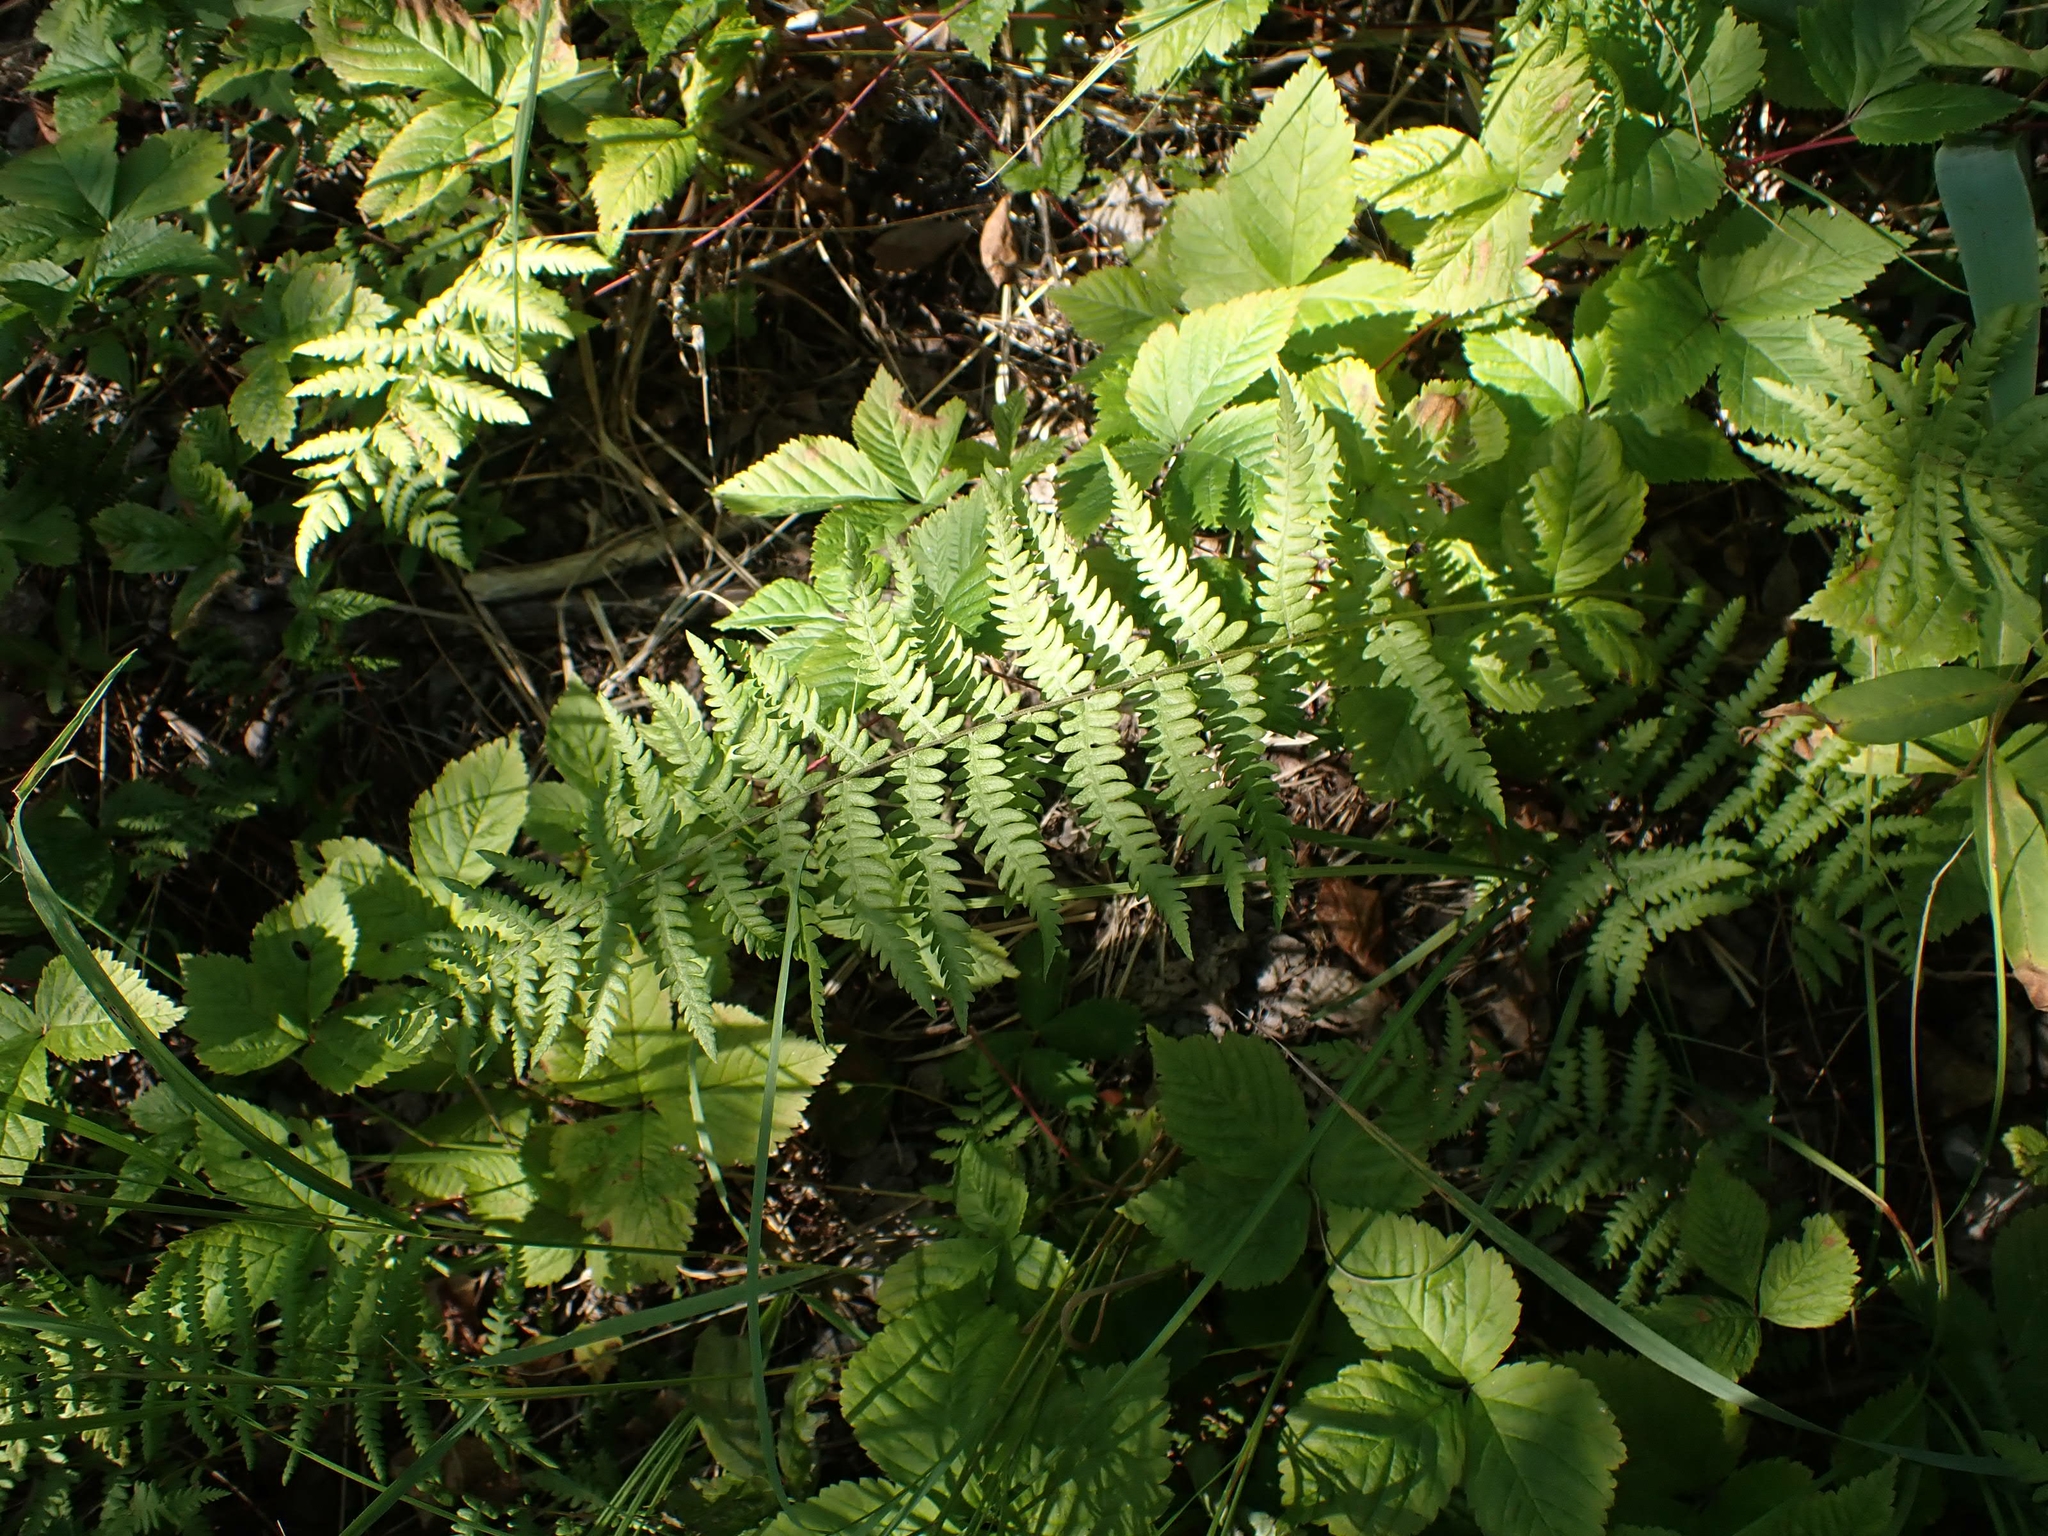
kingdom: Plantae
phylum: Tracheophyta
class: Polypodiopsida
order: Polypodiales
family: Thelypteridaceae
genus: Thelypteris
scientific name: Thelypteris palustris
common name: Marsh fern
